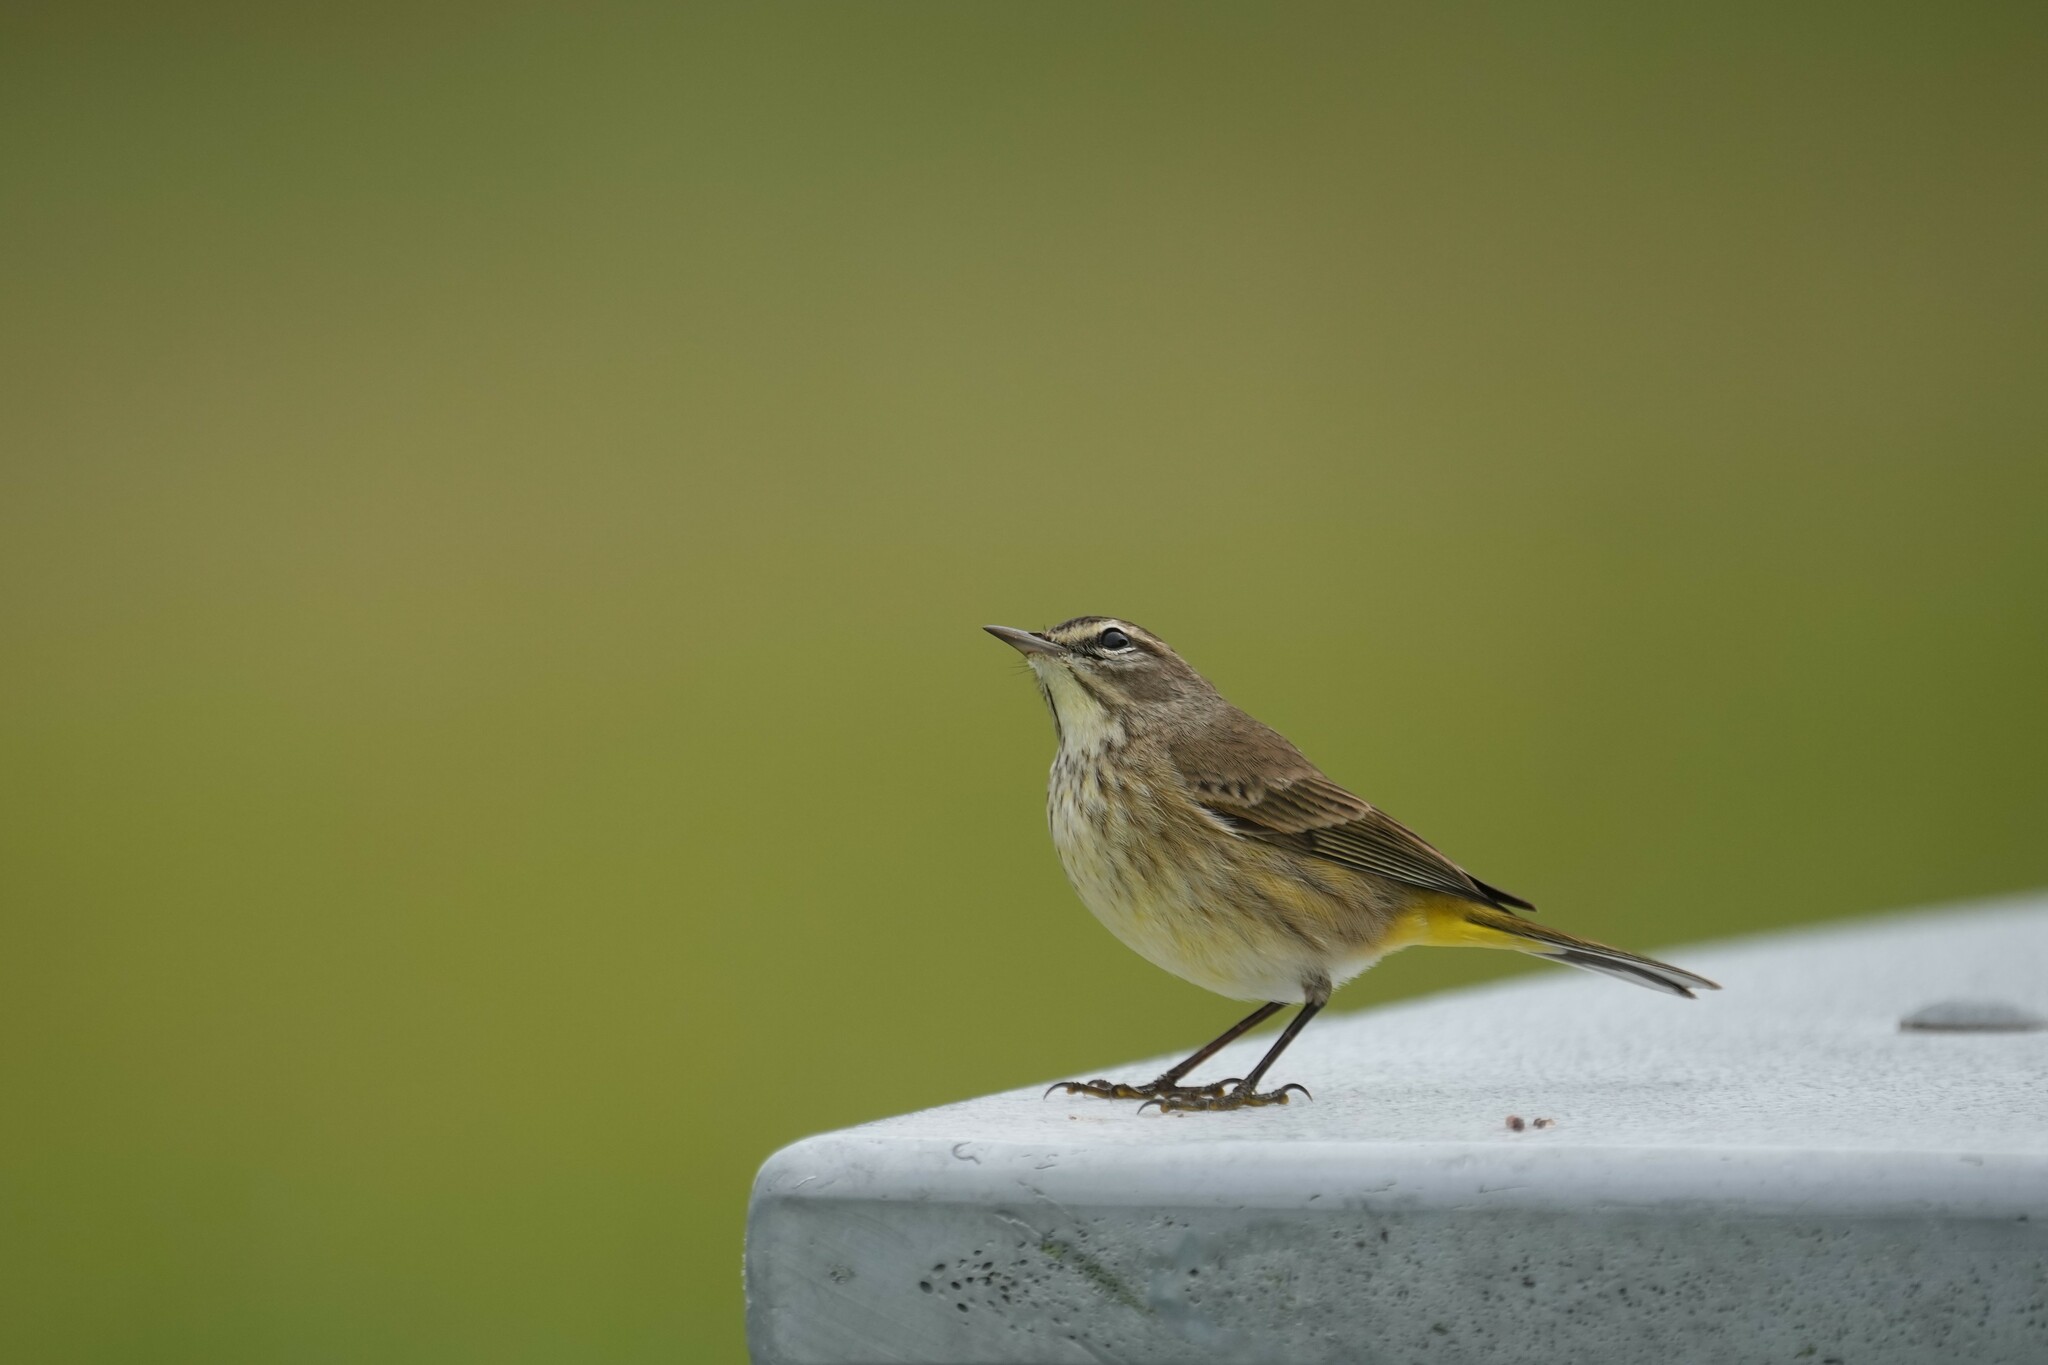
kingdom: Animalia
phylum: Chordata
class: Aves
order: Passeriformes
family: Parulidae
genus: Setophaga
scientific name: Setophaga palmarum
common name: Palm warbler
